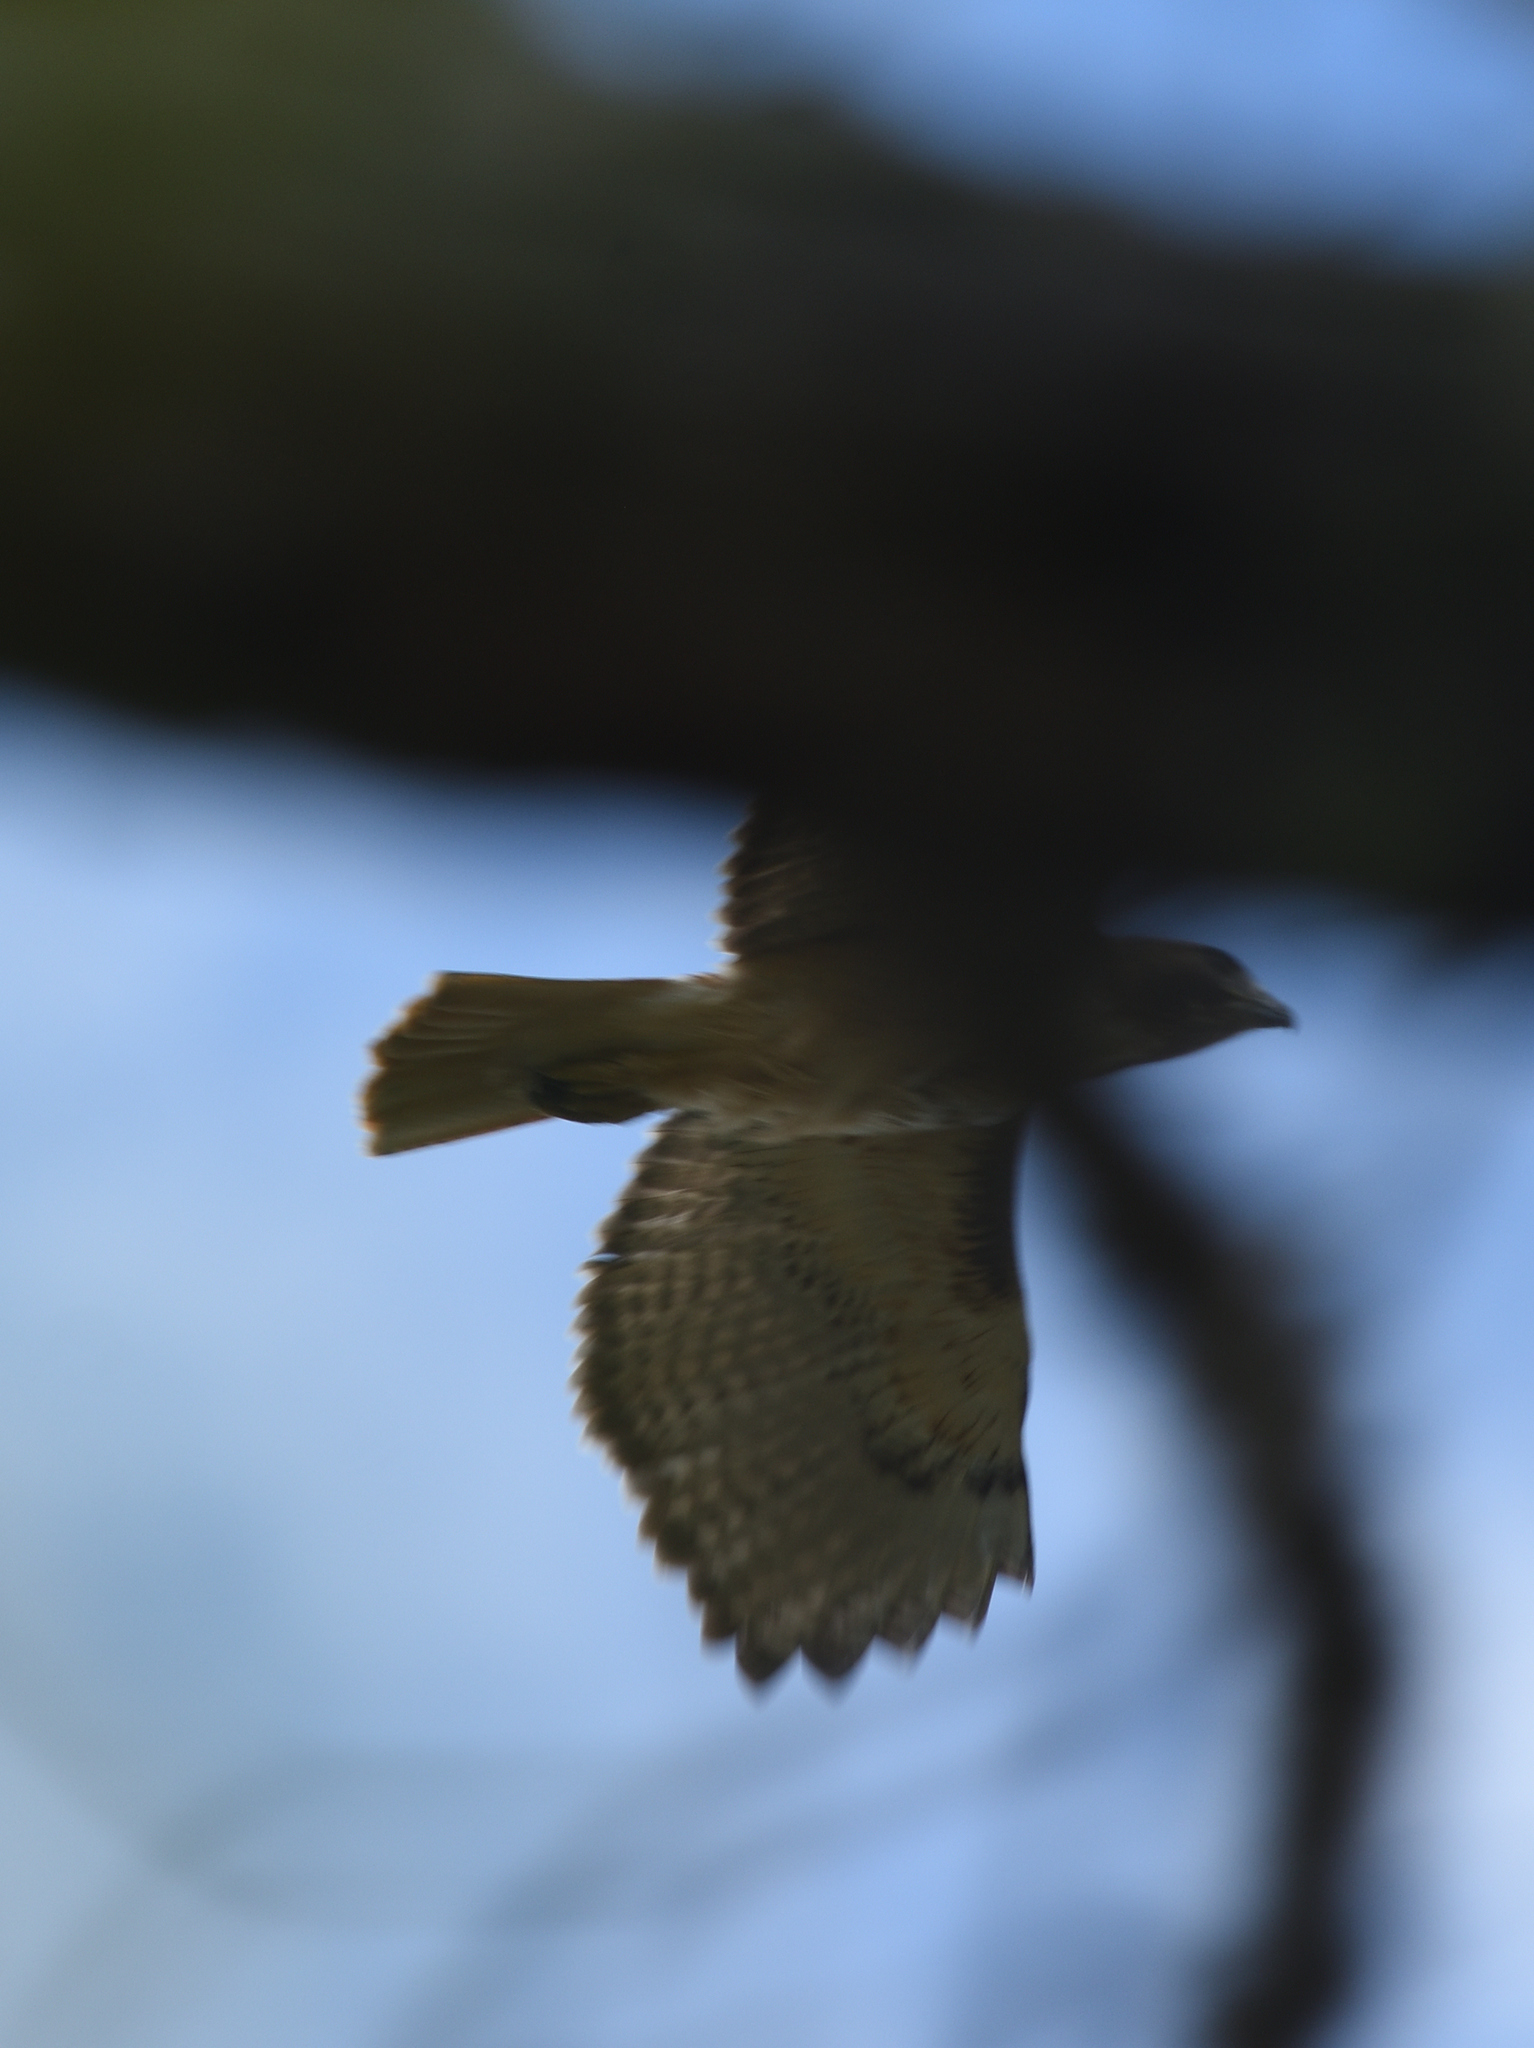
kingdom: Animalia
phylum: Chordata
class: Aves
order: Accipitriformes
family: Accipitridae
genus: Buteo
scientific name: Buteo jamaicensis
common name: Red-tailed hawk
